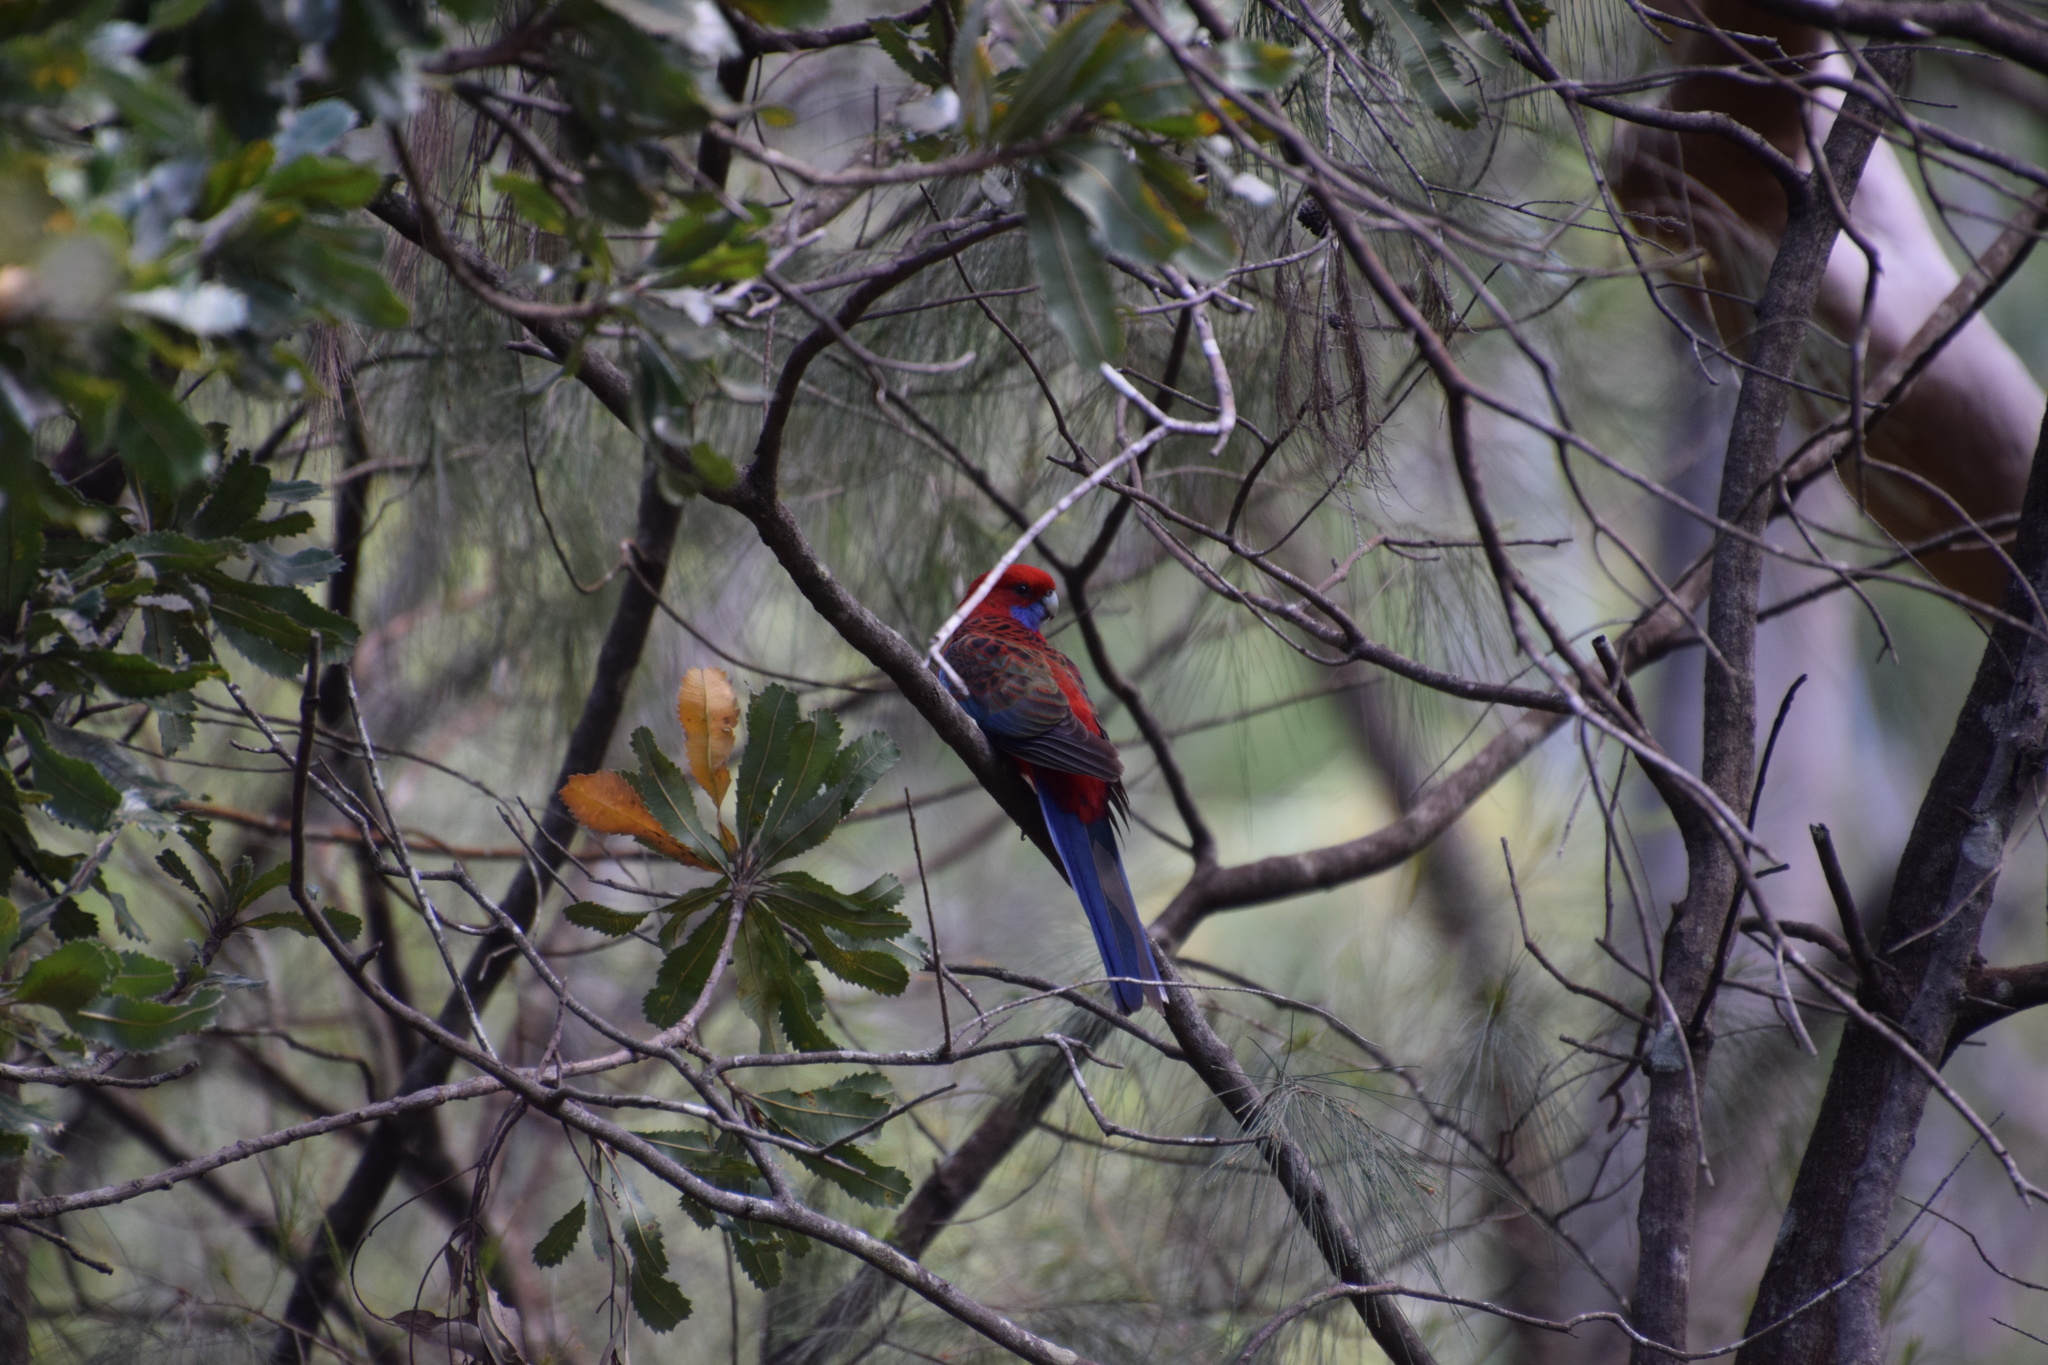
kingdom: Animalia
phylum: Chordata
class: Aves
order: Psittaciformes
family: Psittacidae
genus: Platycercus
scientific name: Platycercus elegans
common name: Crimson rosella
